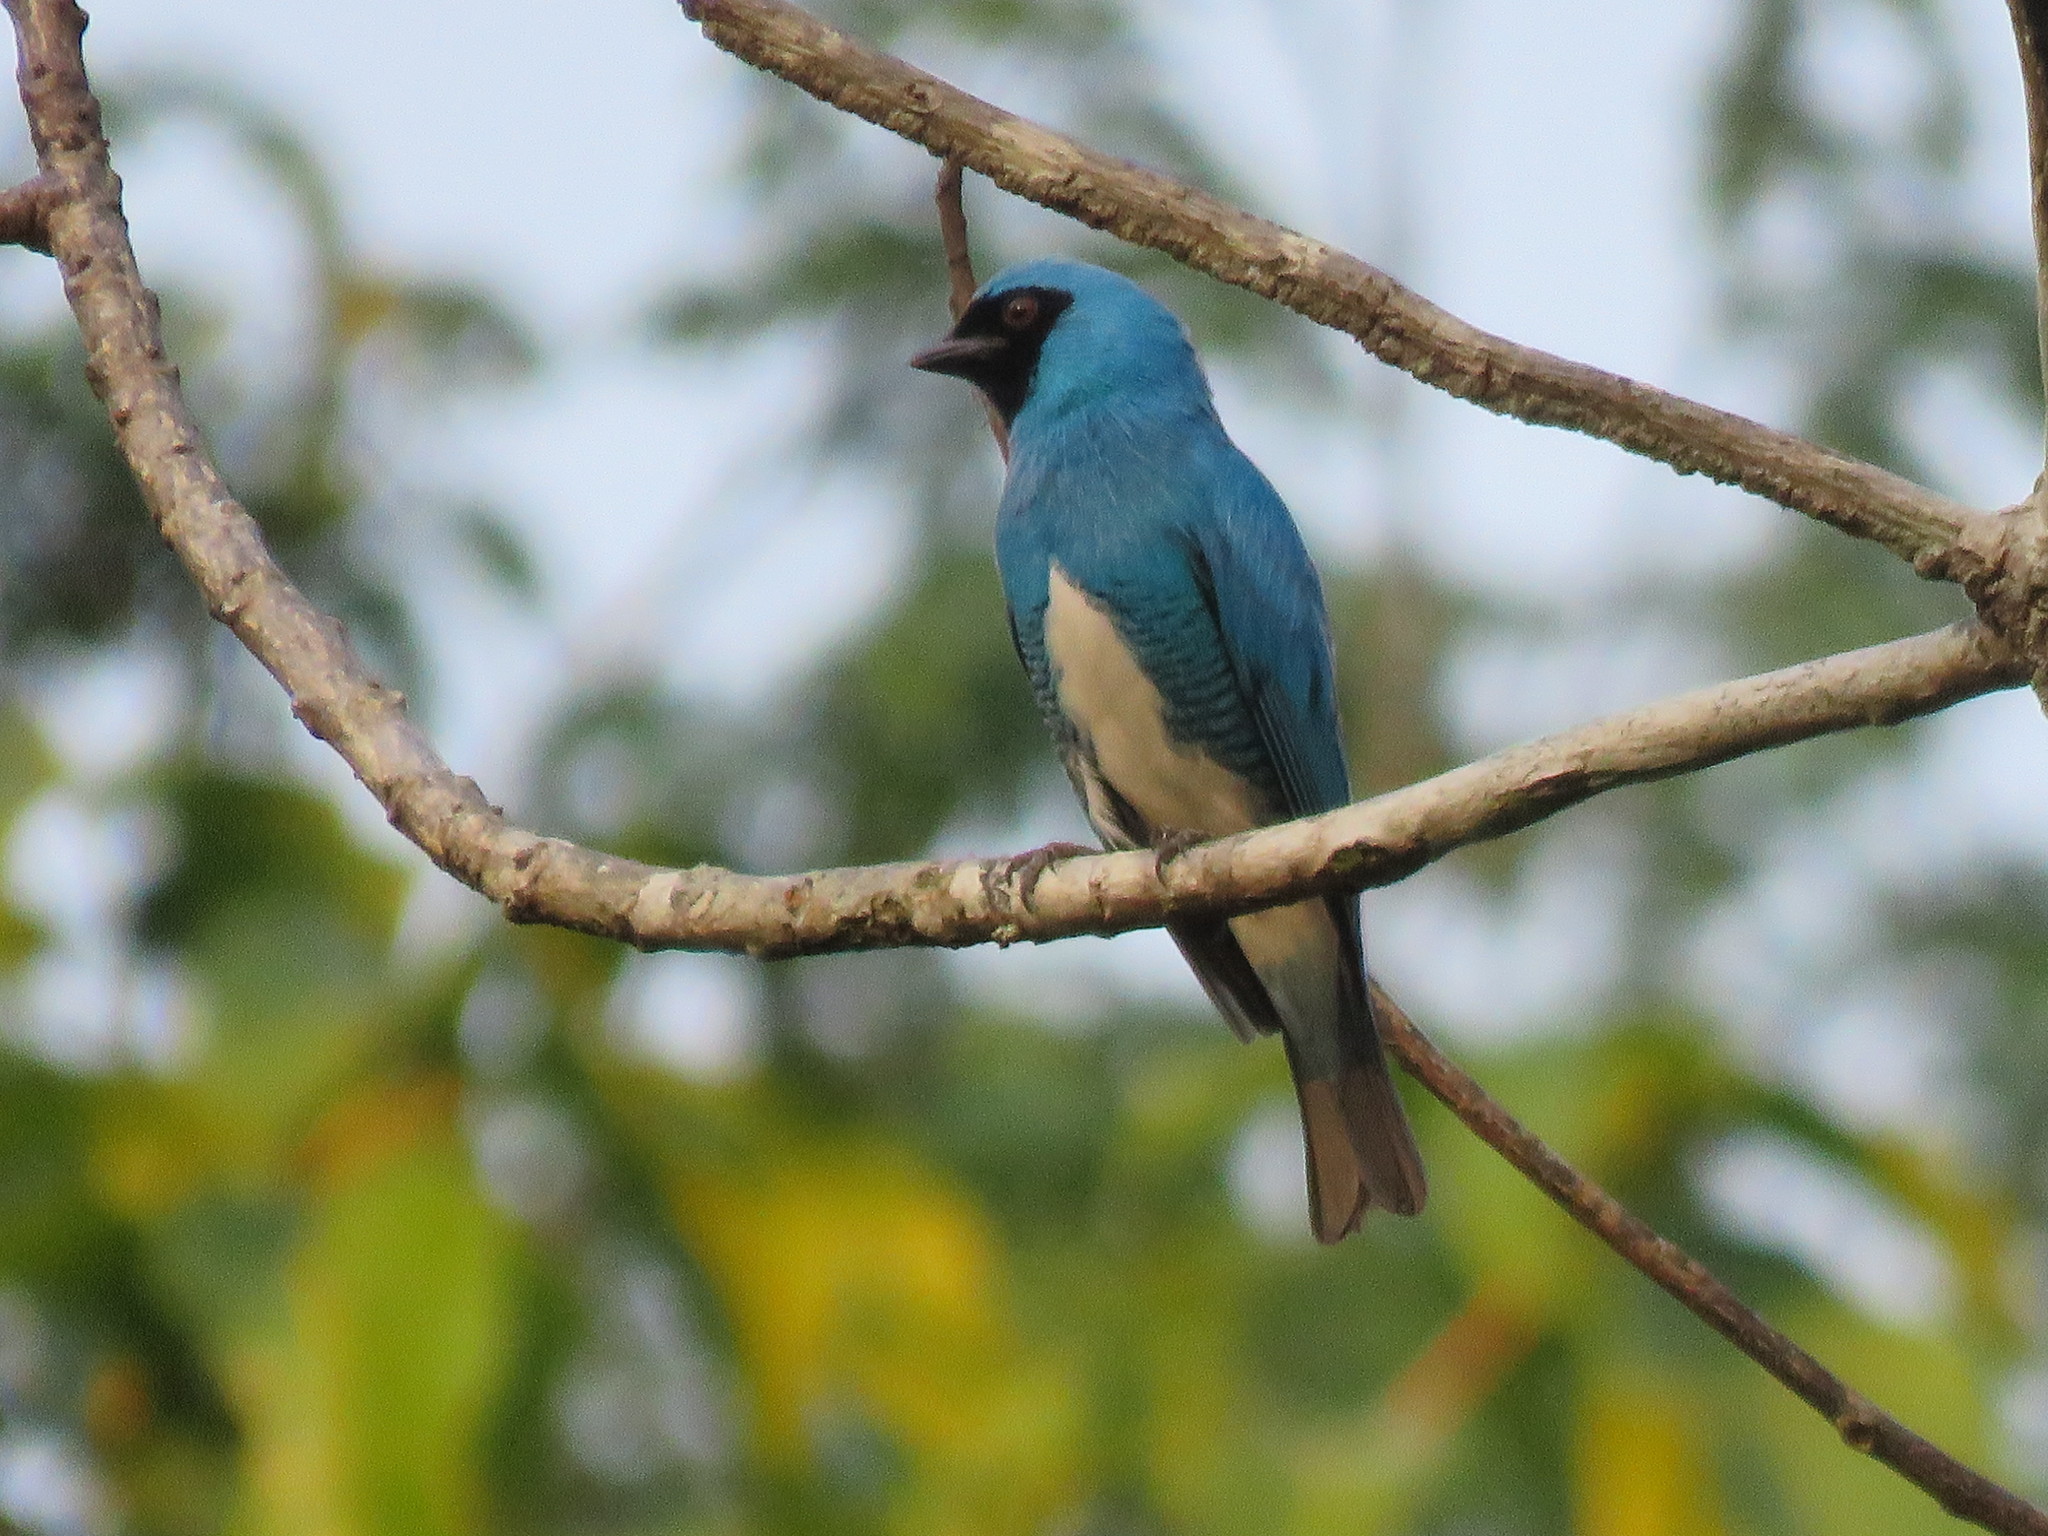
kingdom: Animalia
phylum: Chordata
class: Aves
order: Passeriformes
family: Thraupidae
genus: Tersina
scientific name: Tersina viridis
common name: Swallow tanager
